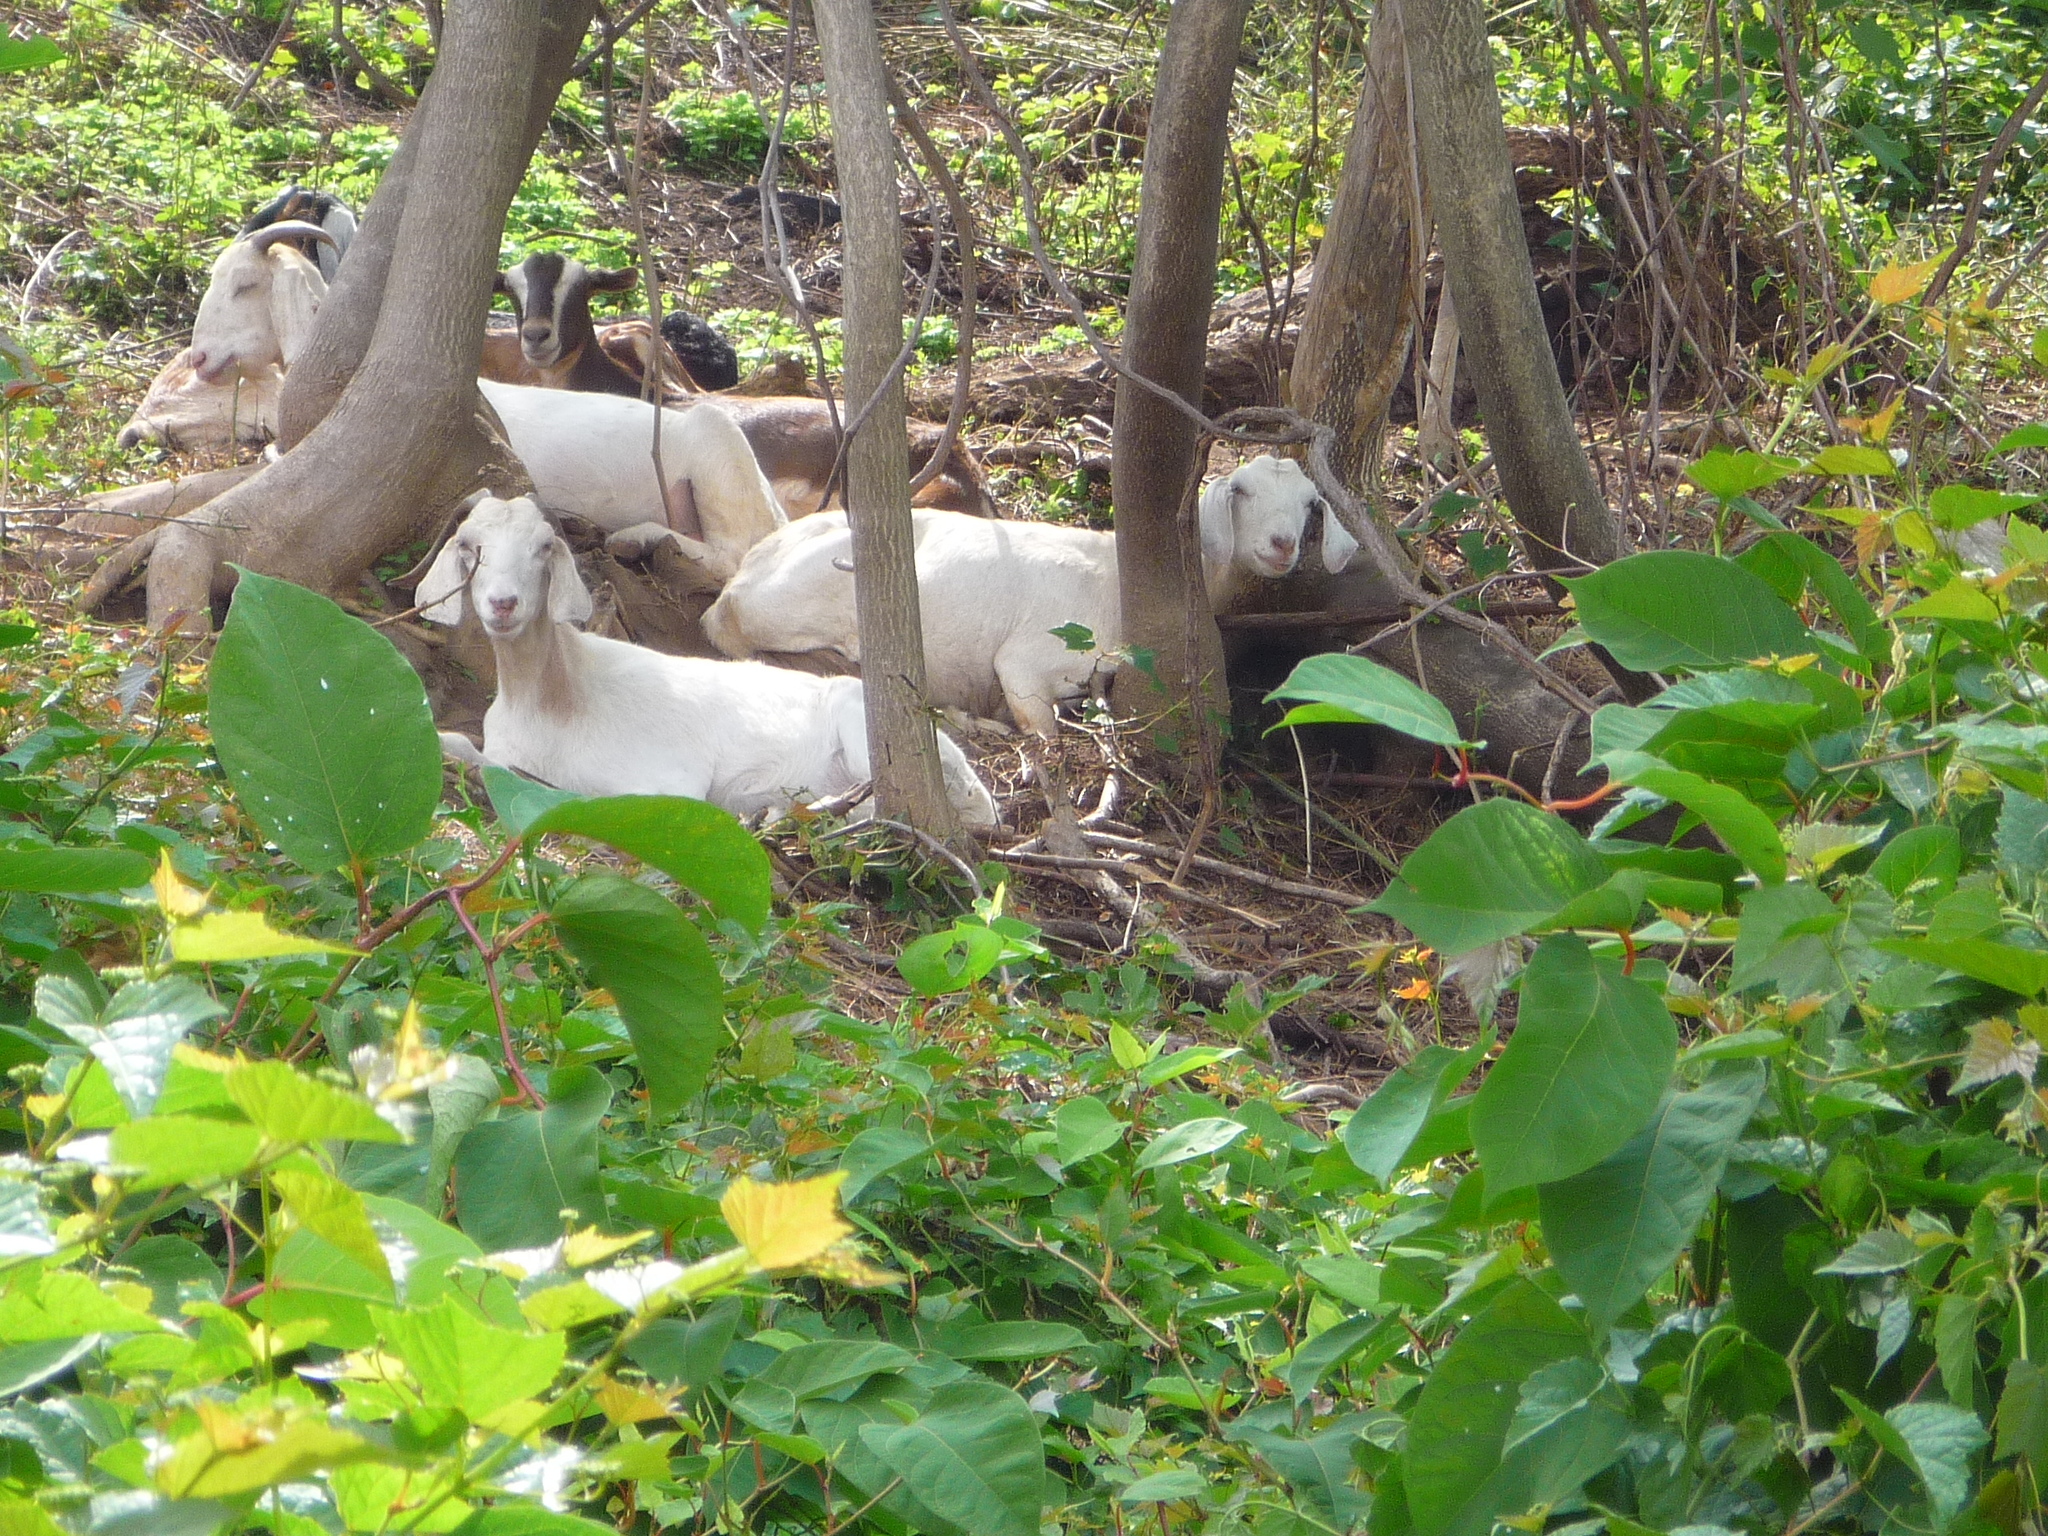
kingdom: Plantae
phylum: Tracheophyta
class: Magnoliopsida
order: Caryophyllales
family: Polygonaceae
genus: Reynoutria
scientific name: Reynoutria japonica
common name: Japanese knotweed
